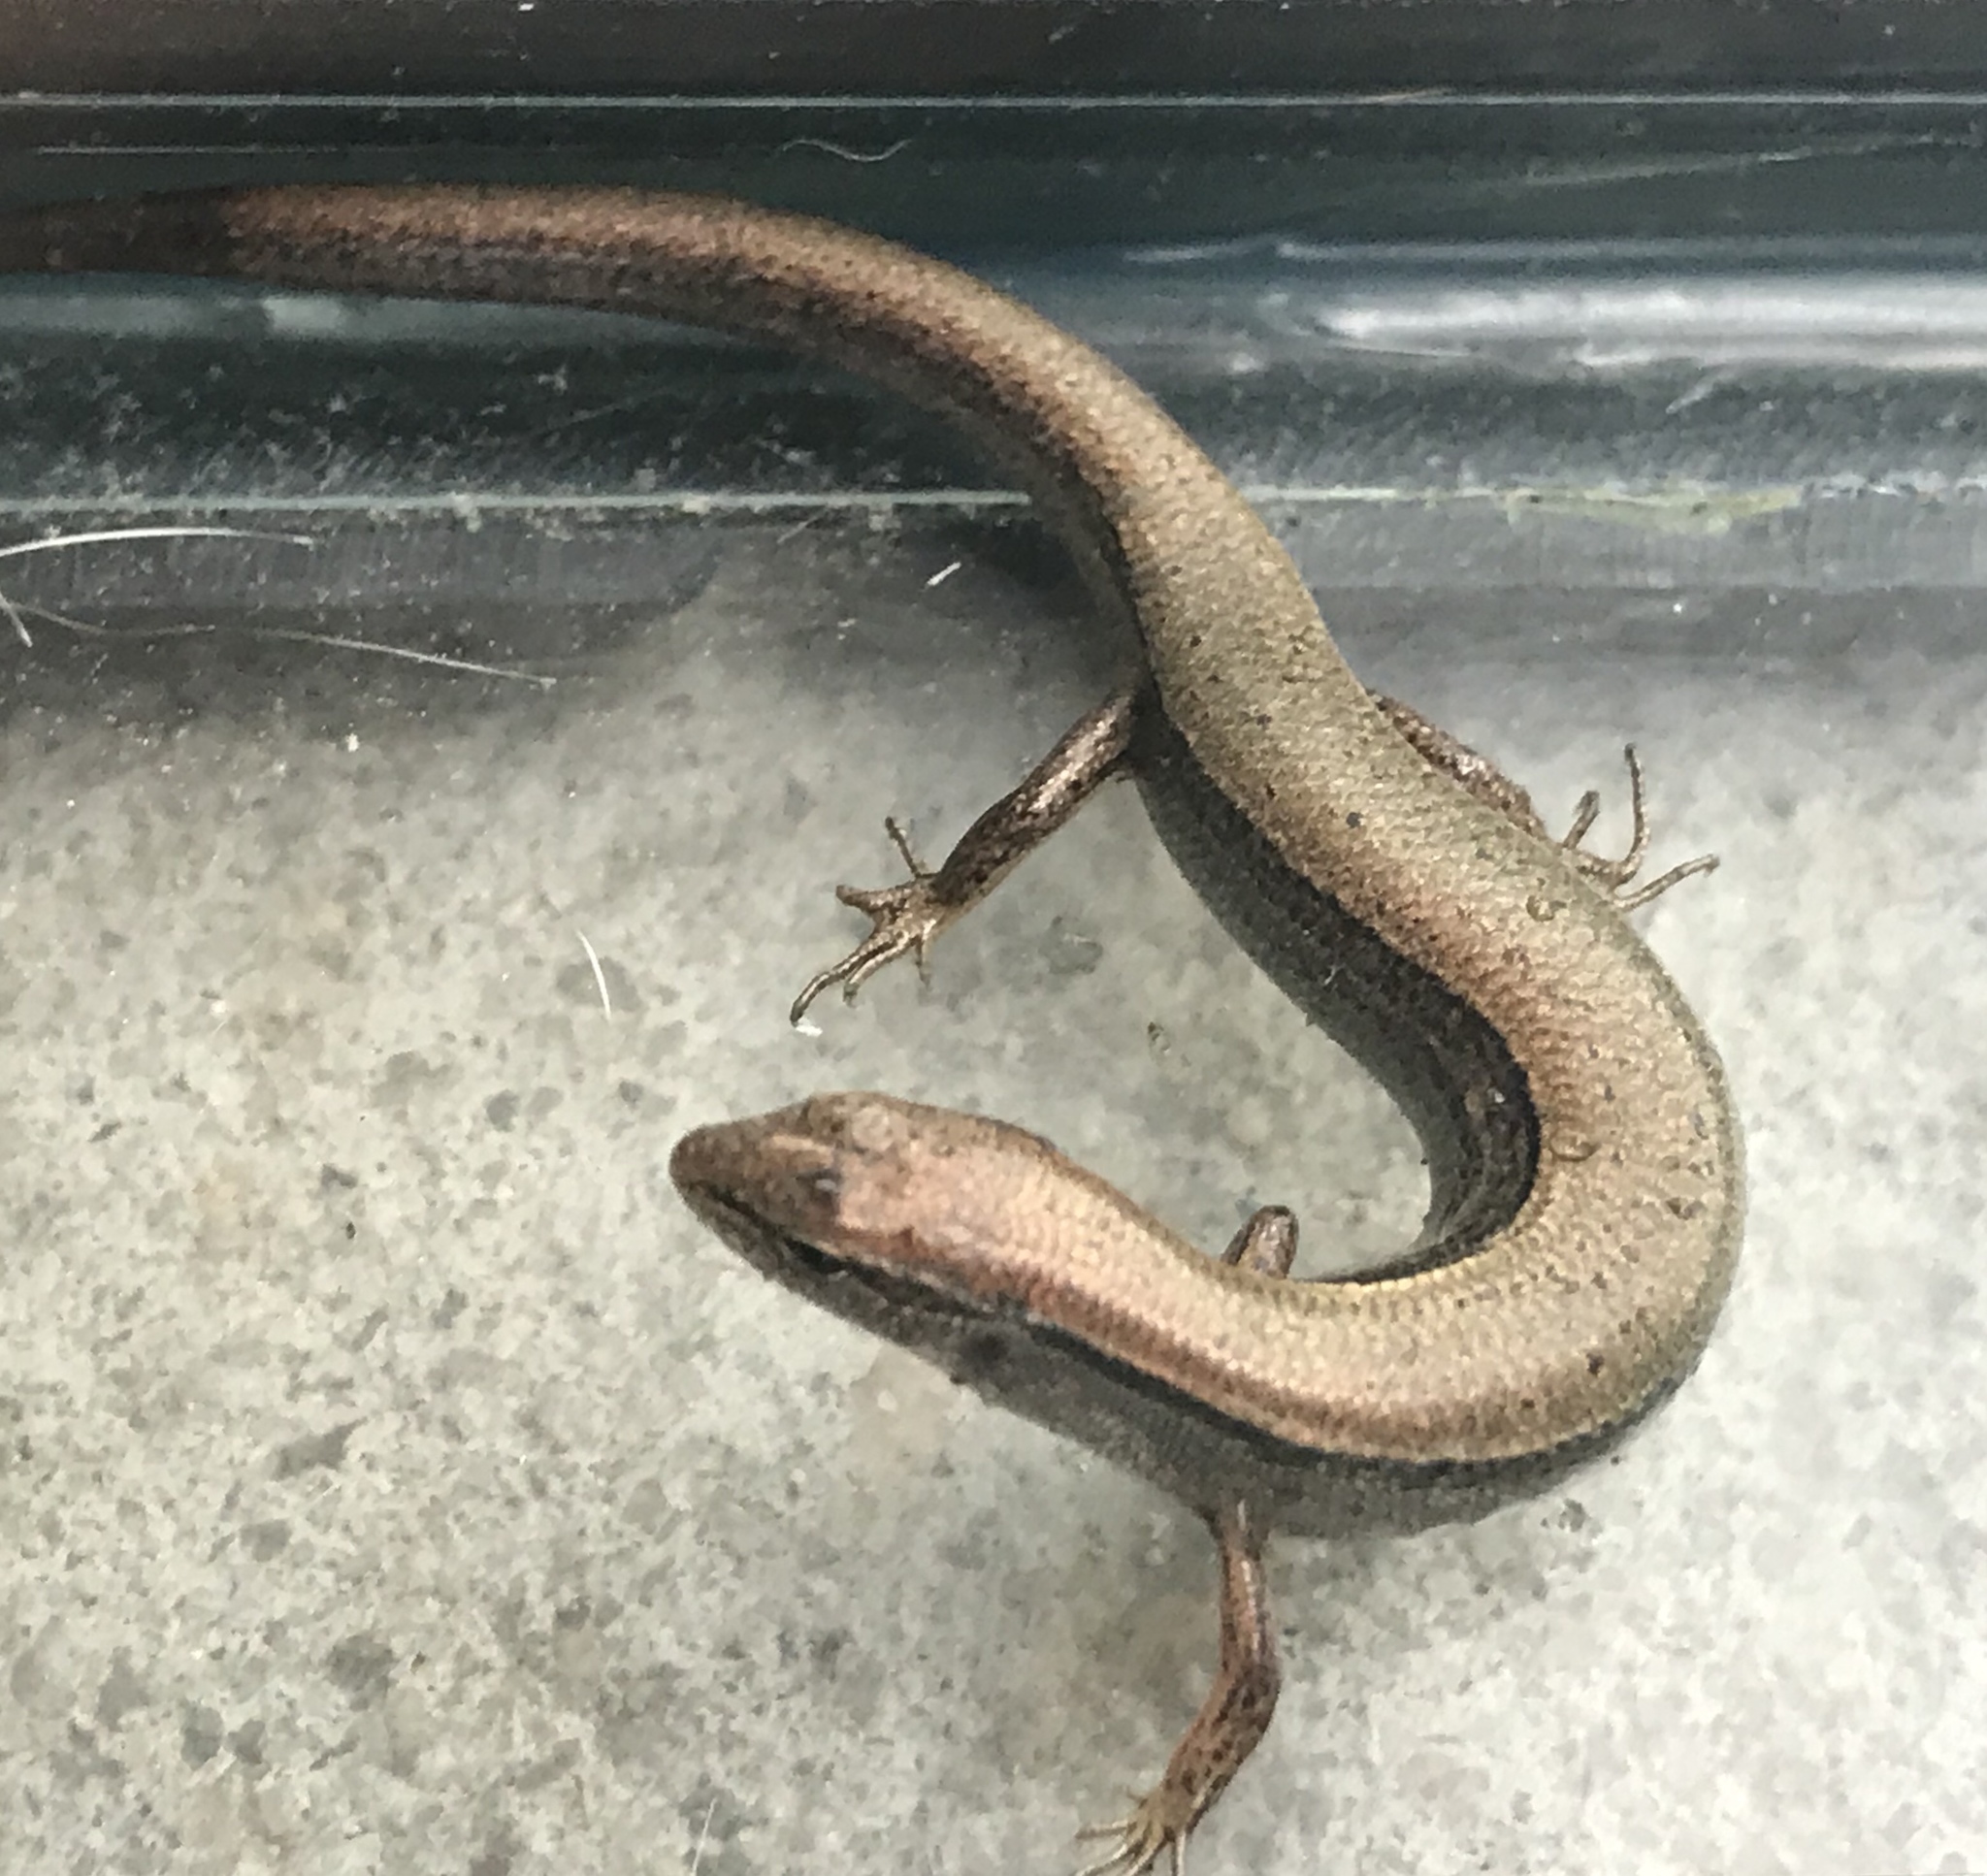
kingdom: Animalia
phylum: Chordata
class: Squamata
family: Scincidae
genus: Scincella
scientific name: Scincella lateralis
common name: Ground skink
